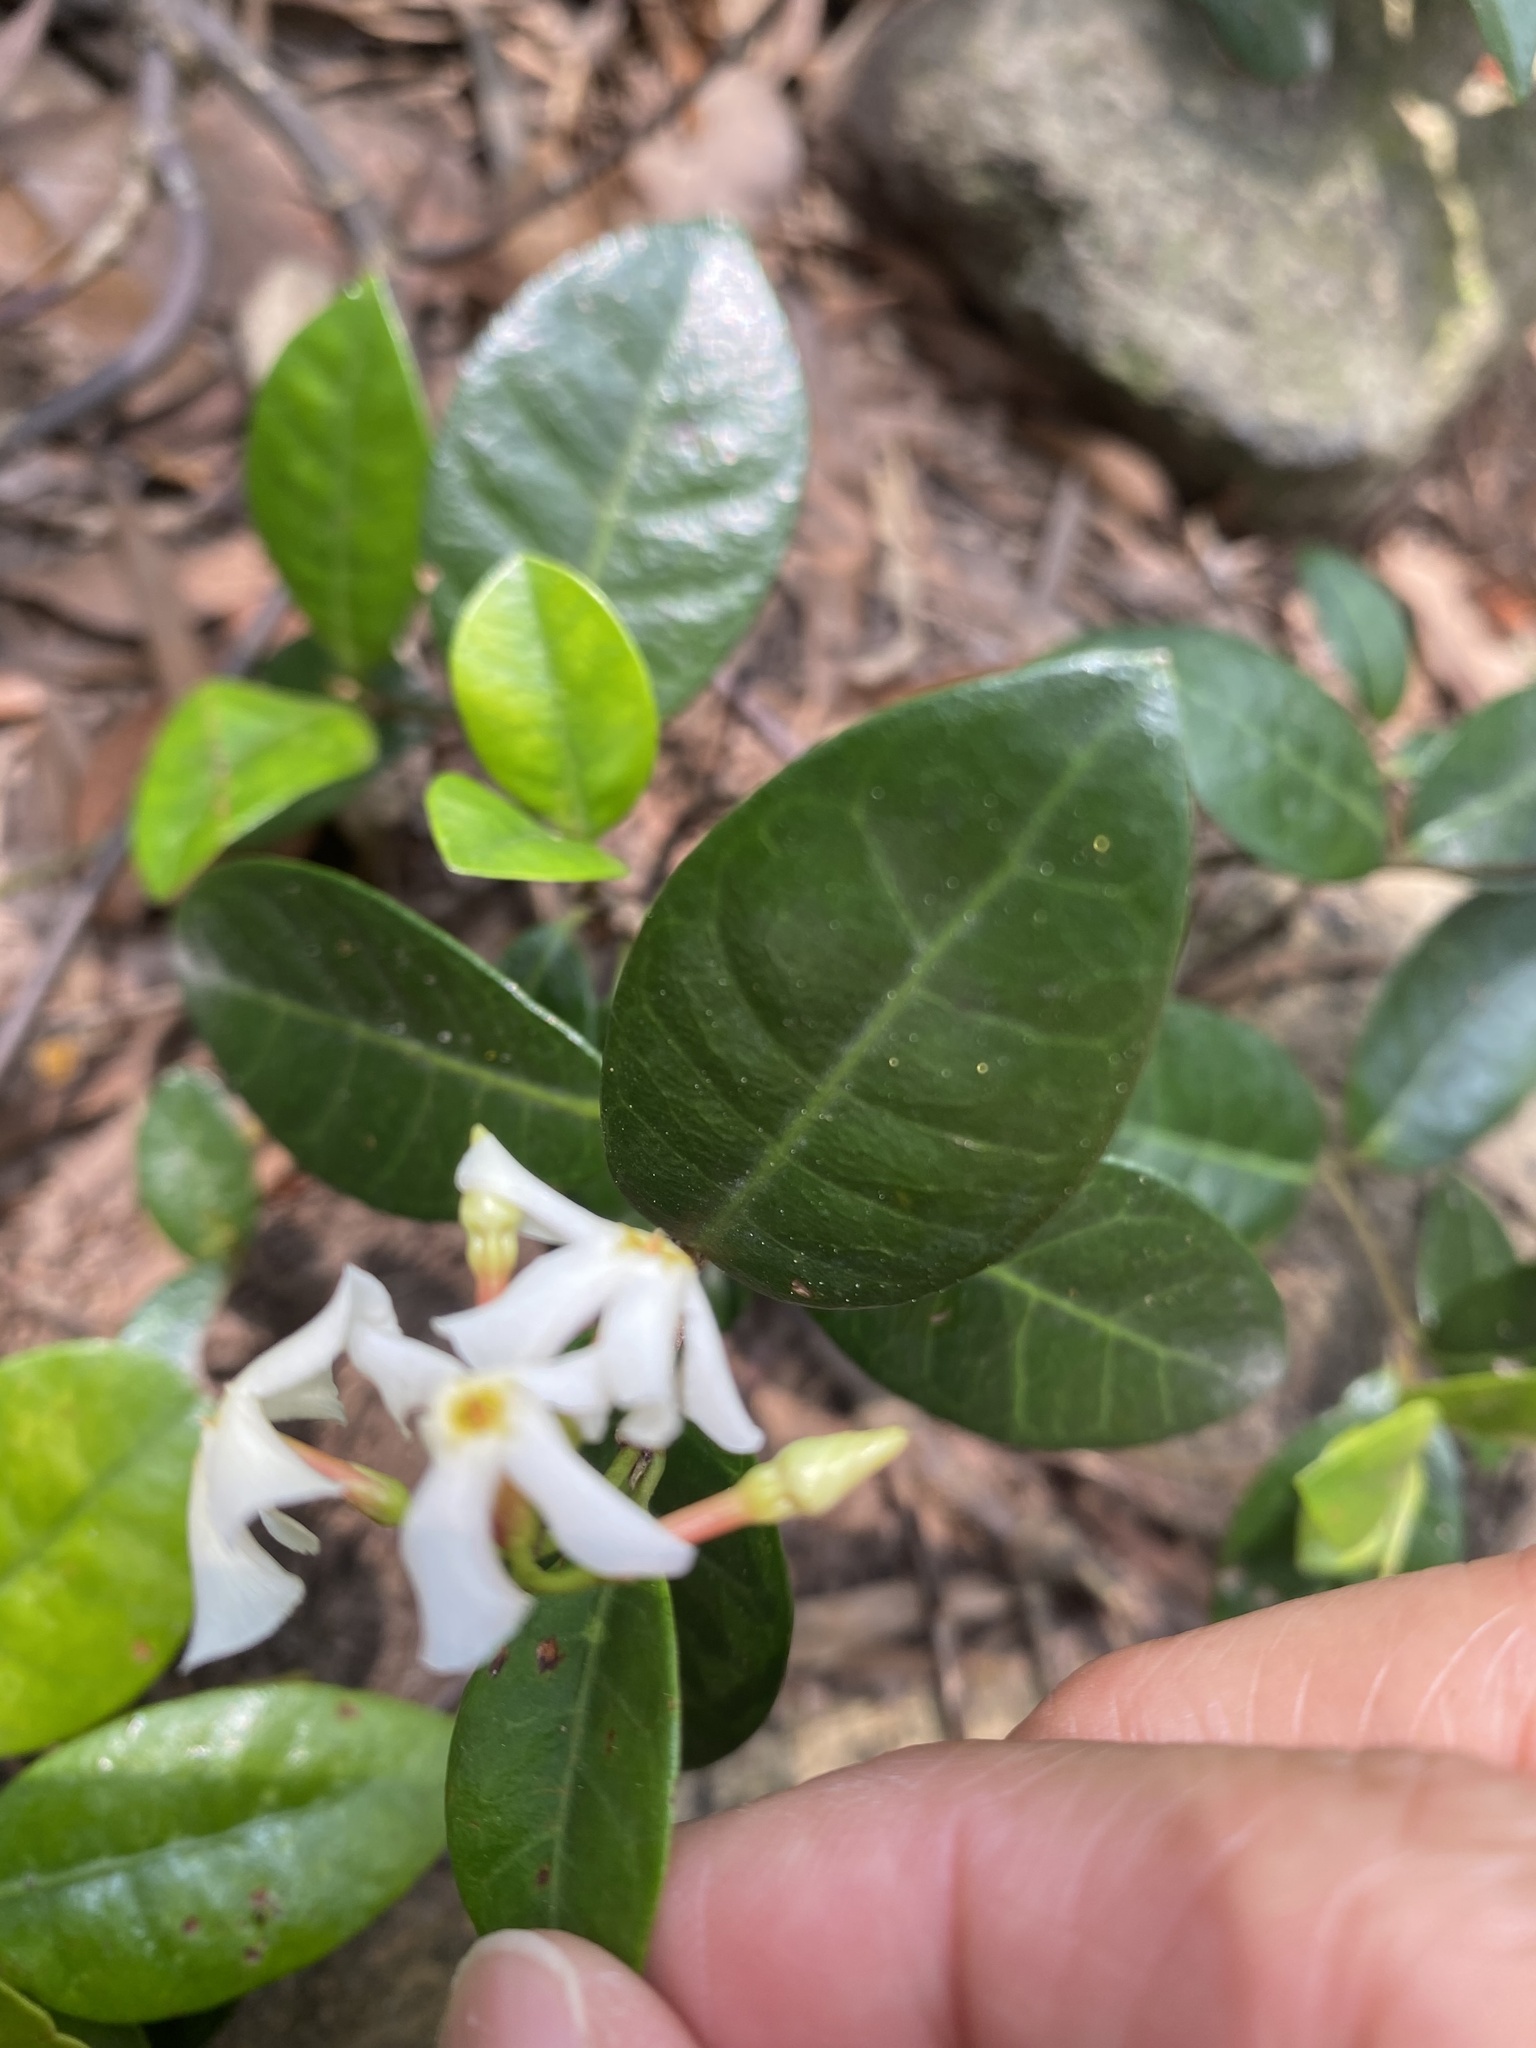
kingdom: Plantae
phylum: Tracheophyta
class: Magnoliopsida
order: Gentianales
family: Apocynaceae
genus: Trachelospermum
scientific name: Trachelospermum asiaticum
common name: Asiatic jasmine
